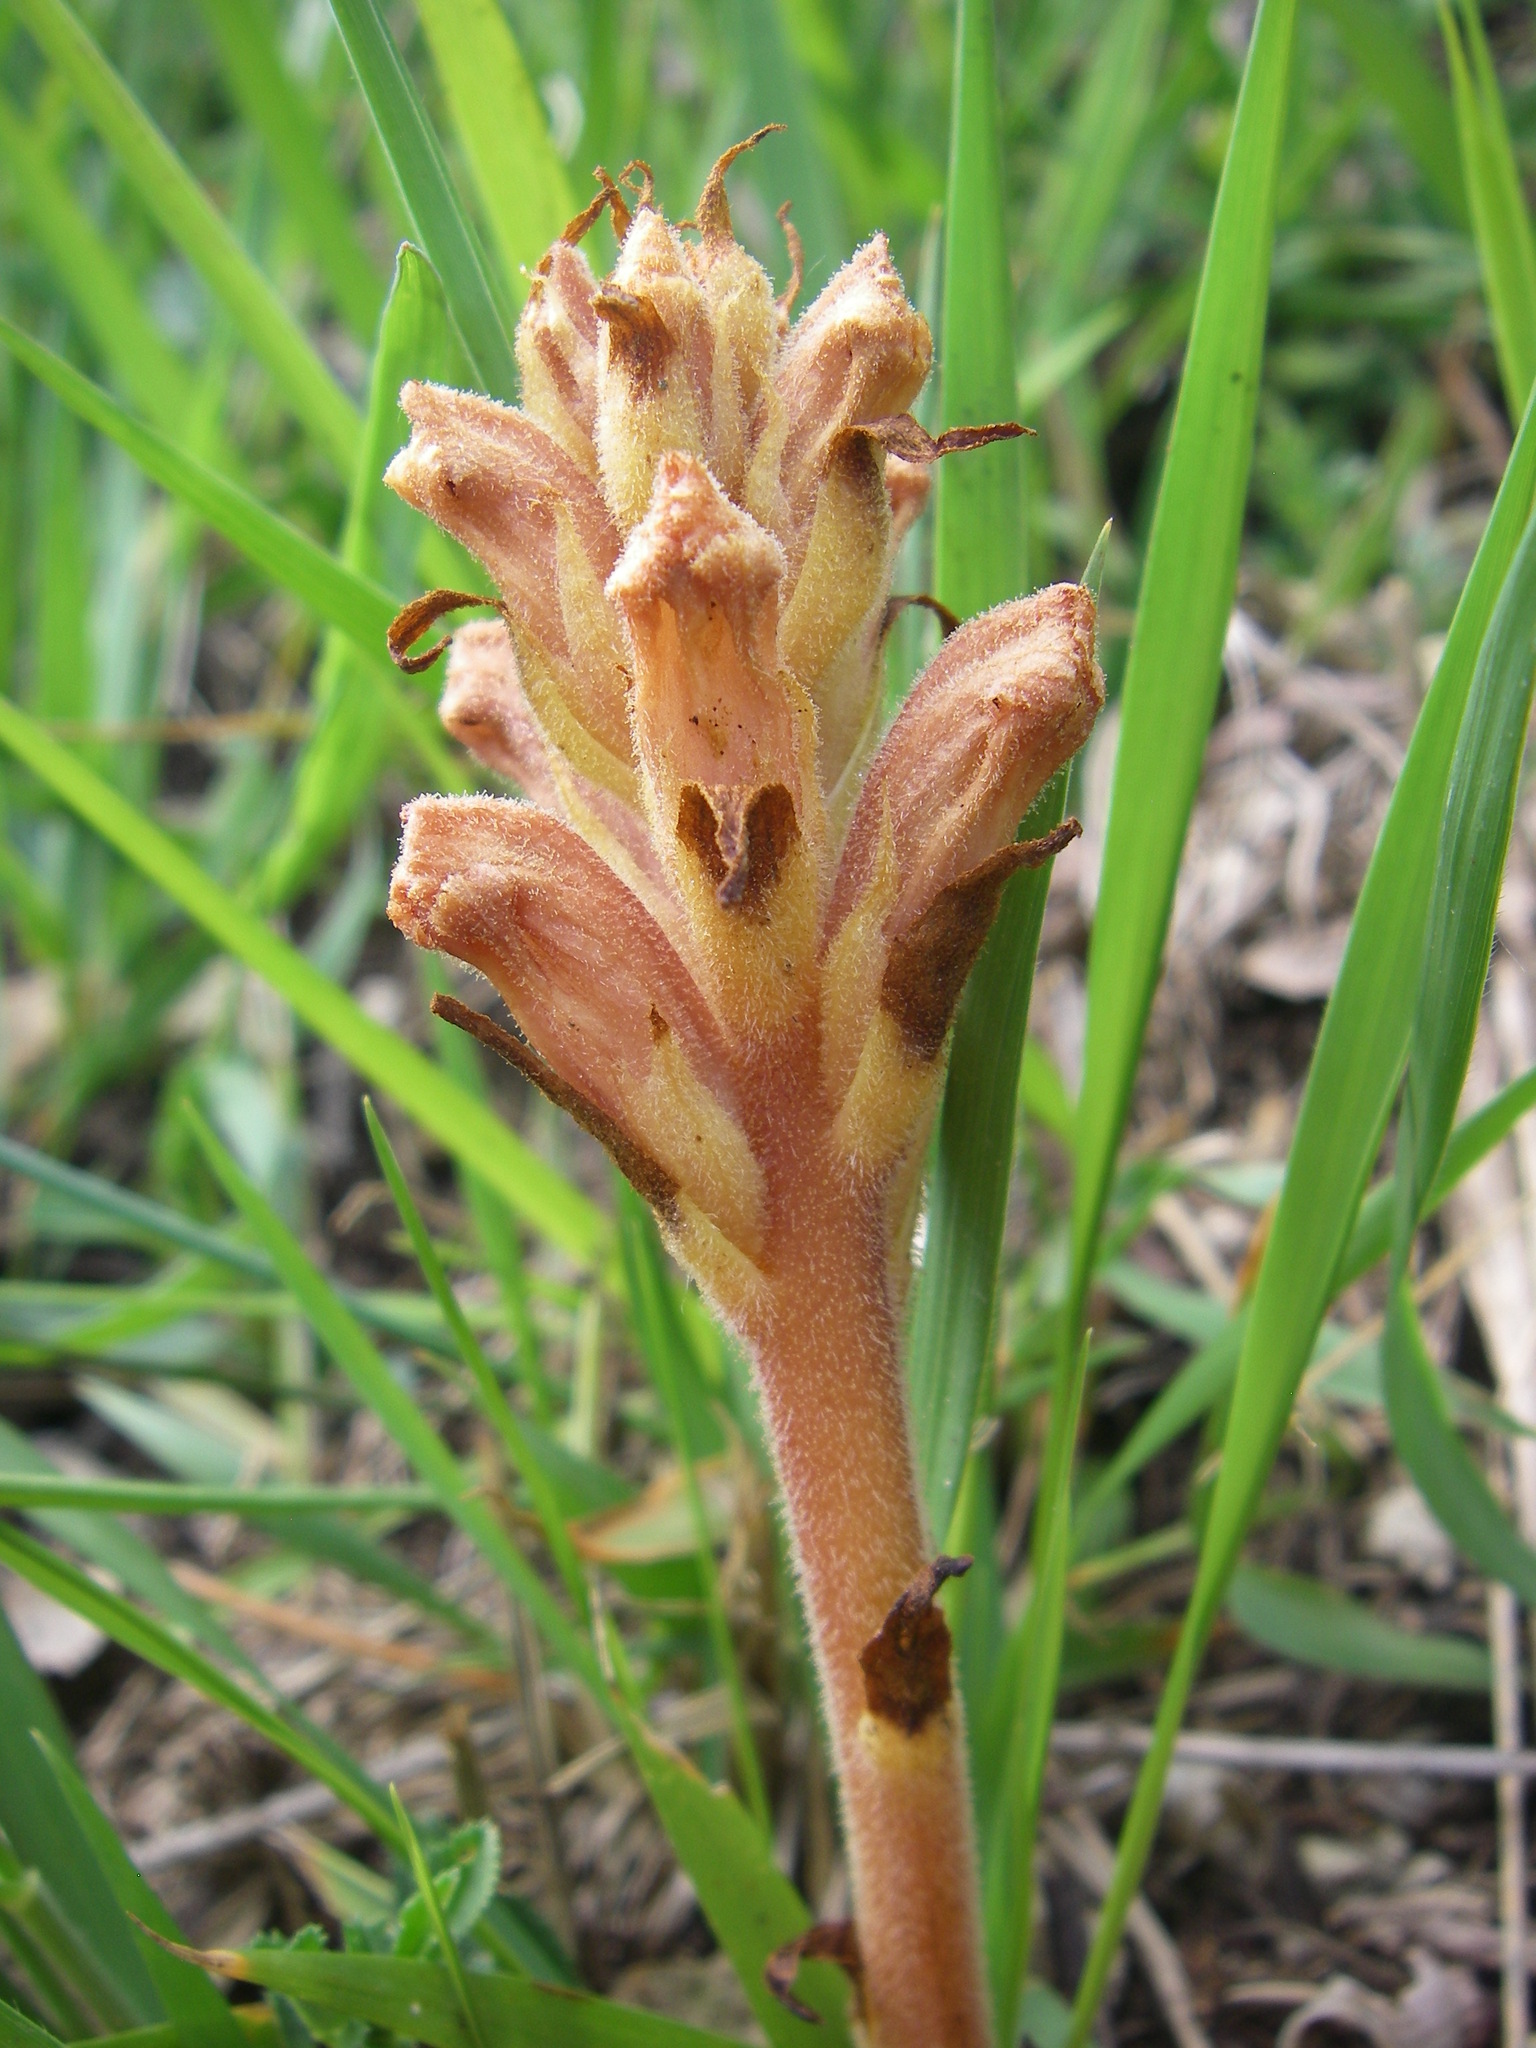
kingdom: Plantae
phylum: Tracheophyta
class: Magnoliopsida
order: Lamiales
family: Orobanchaceae
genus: Orobanche
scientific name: Orobanche alba
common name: Thyme broomrape
